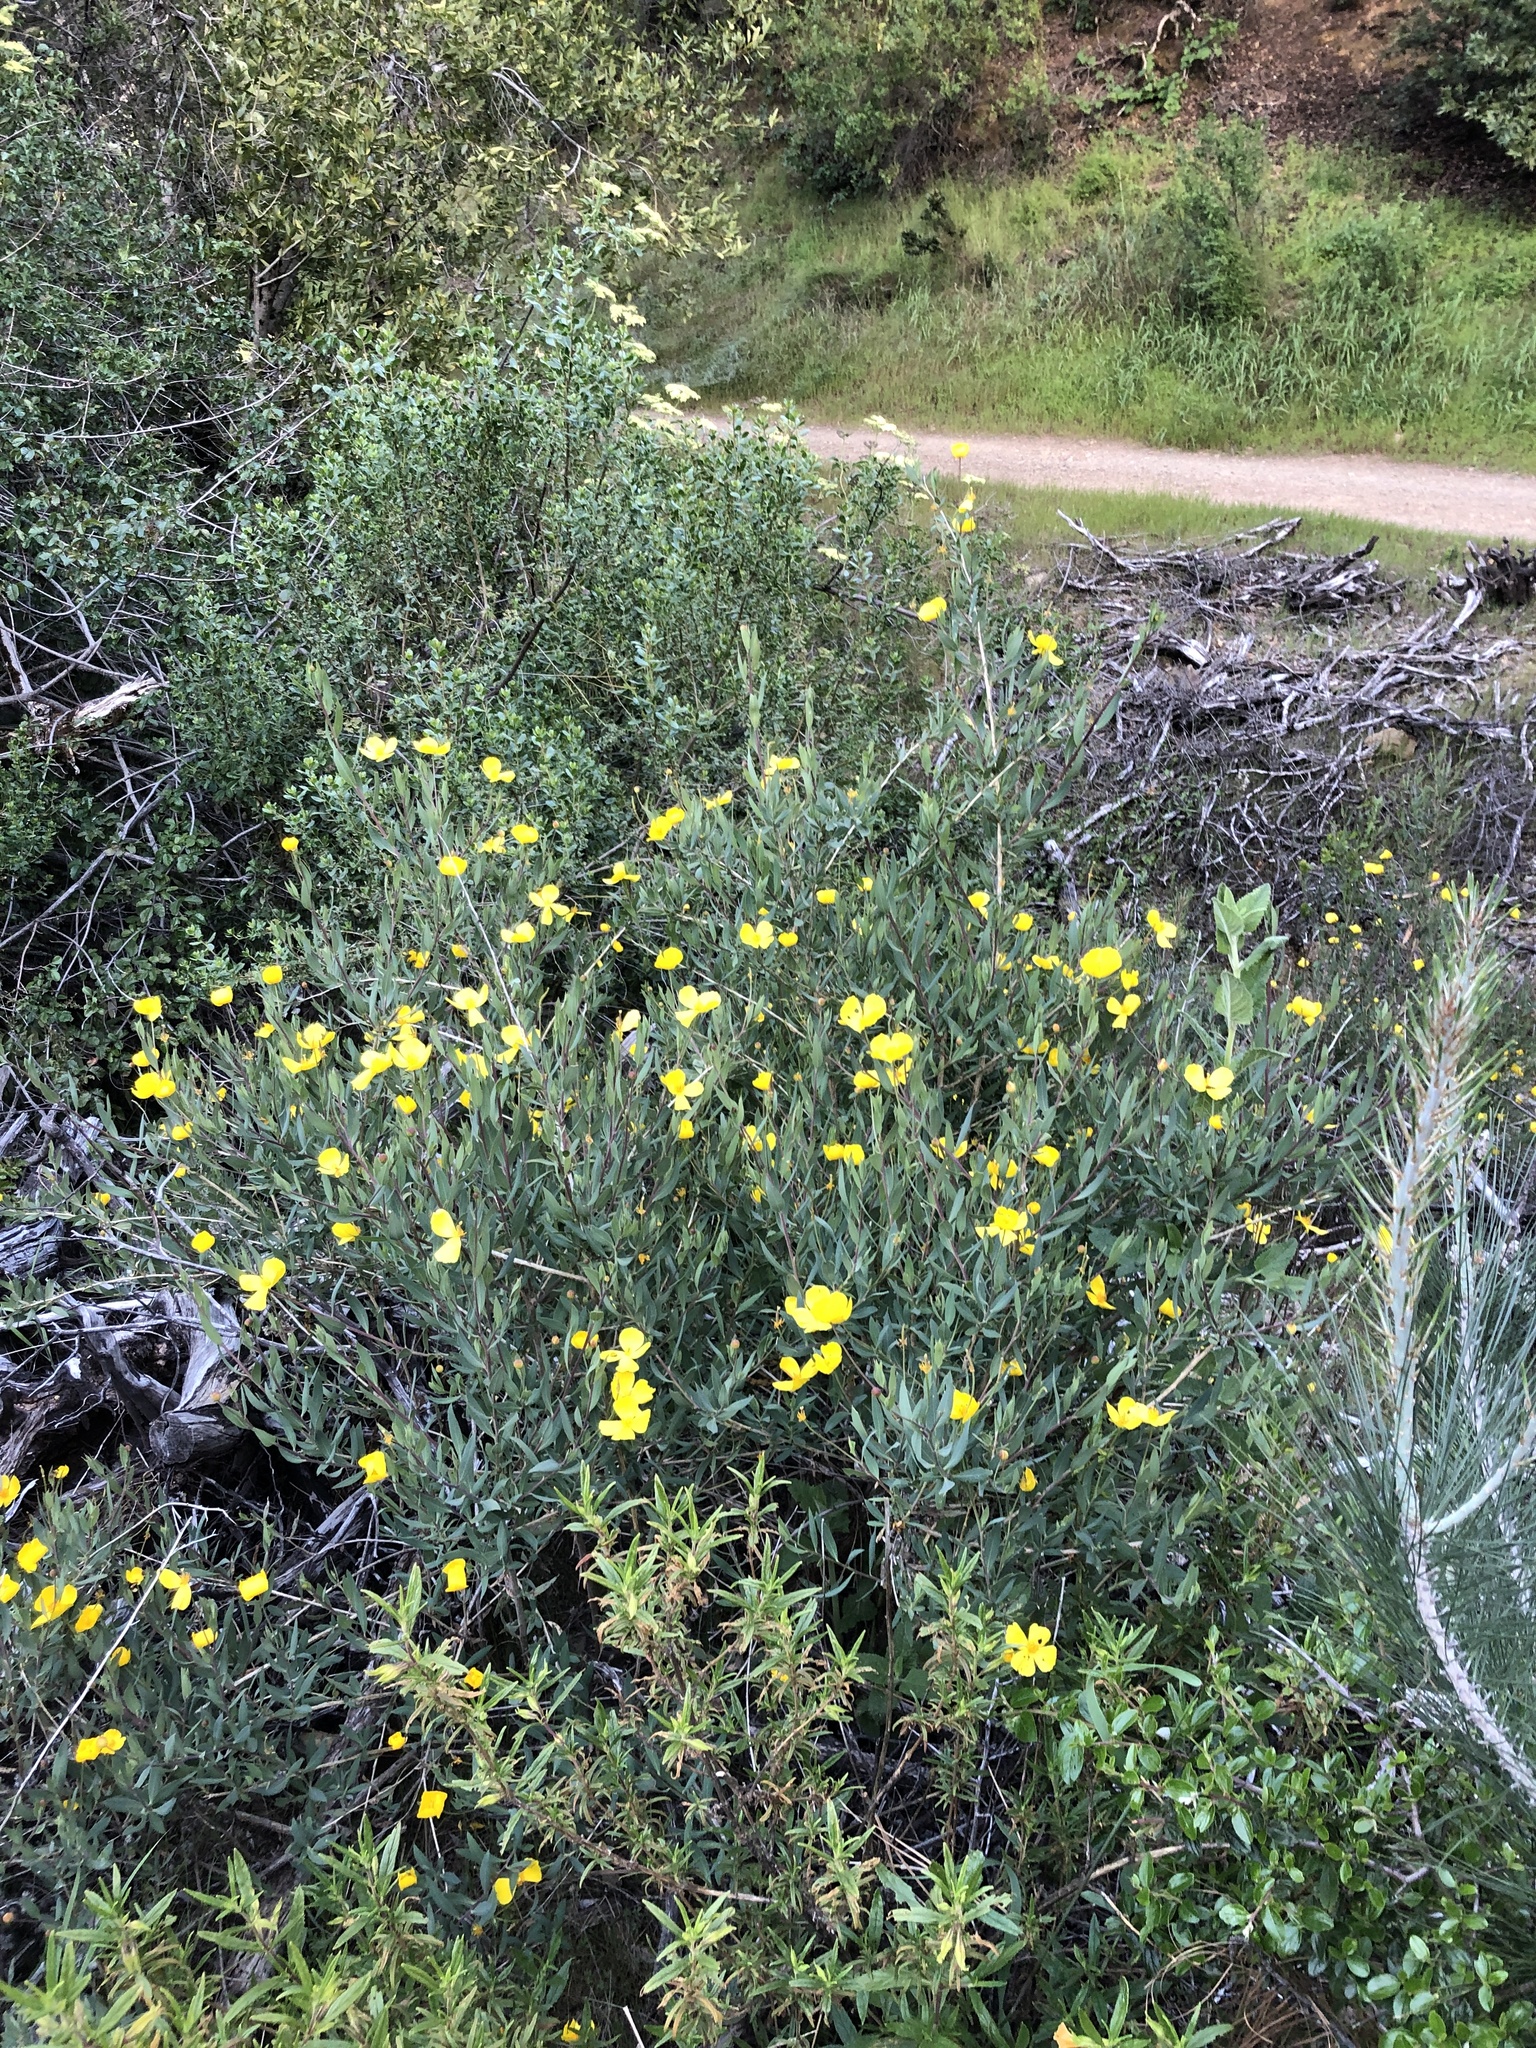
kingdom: Plantae
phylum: Tracheophyta
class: Magnoliopsida
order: Ranunculales
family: Papaveraceae
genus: Dendromecon
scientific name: Dendromecon rigida
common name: Tree poppy
